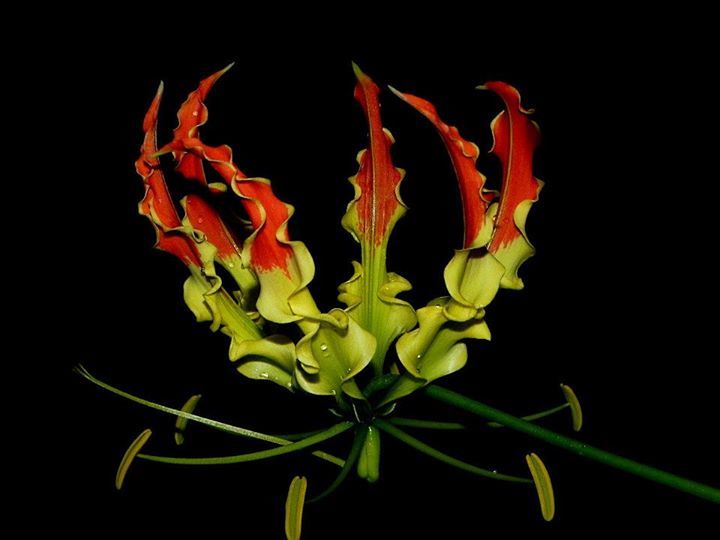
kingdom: Plantae
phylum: Tracheophyta
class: Liliopsida
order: Liliales
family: Colchicaceae
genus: Gloriosa
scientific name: Gloriosa superba
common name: Flame lily
